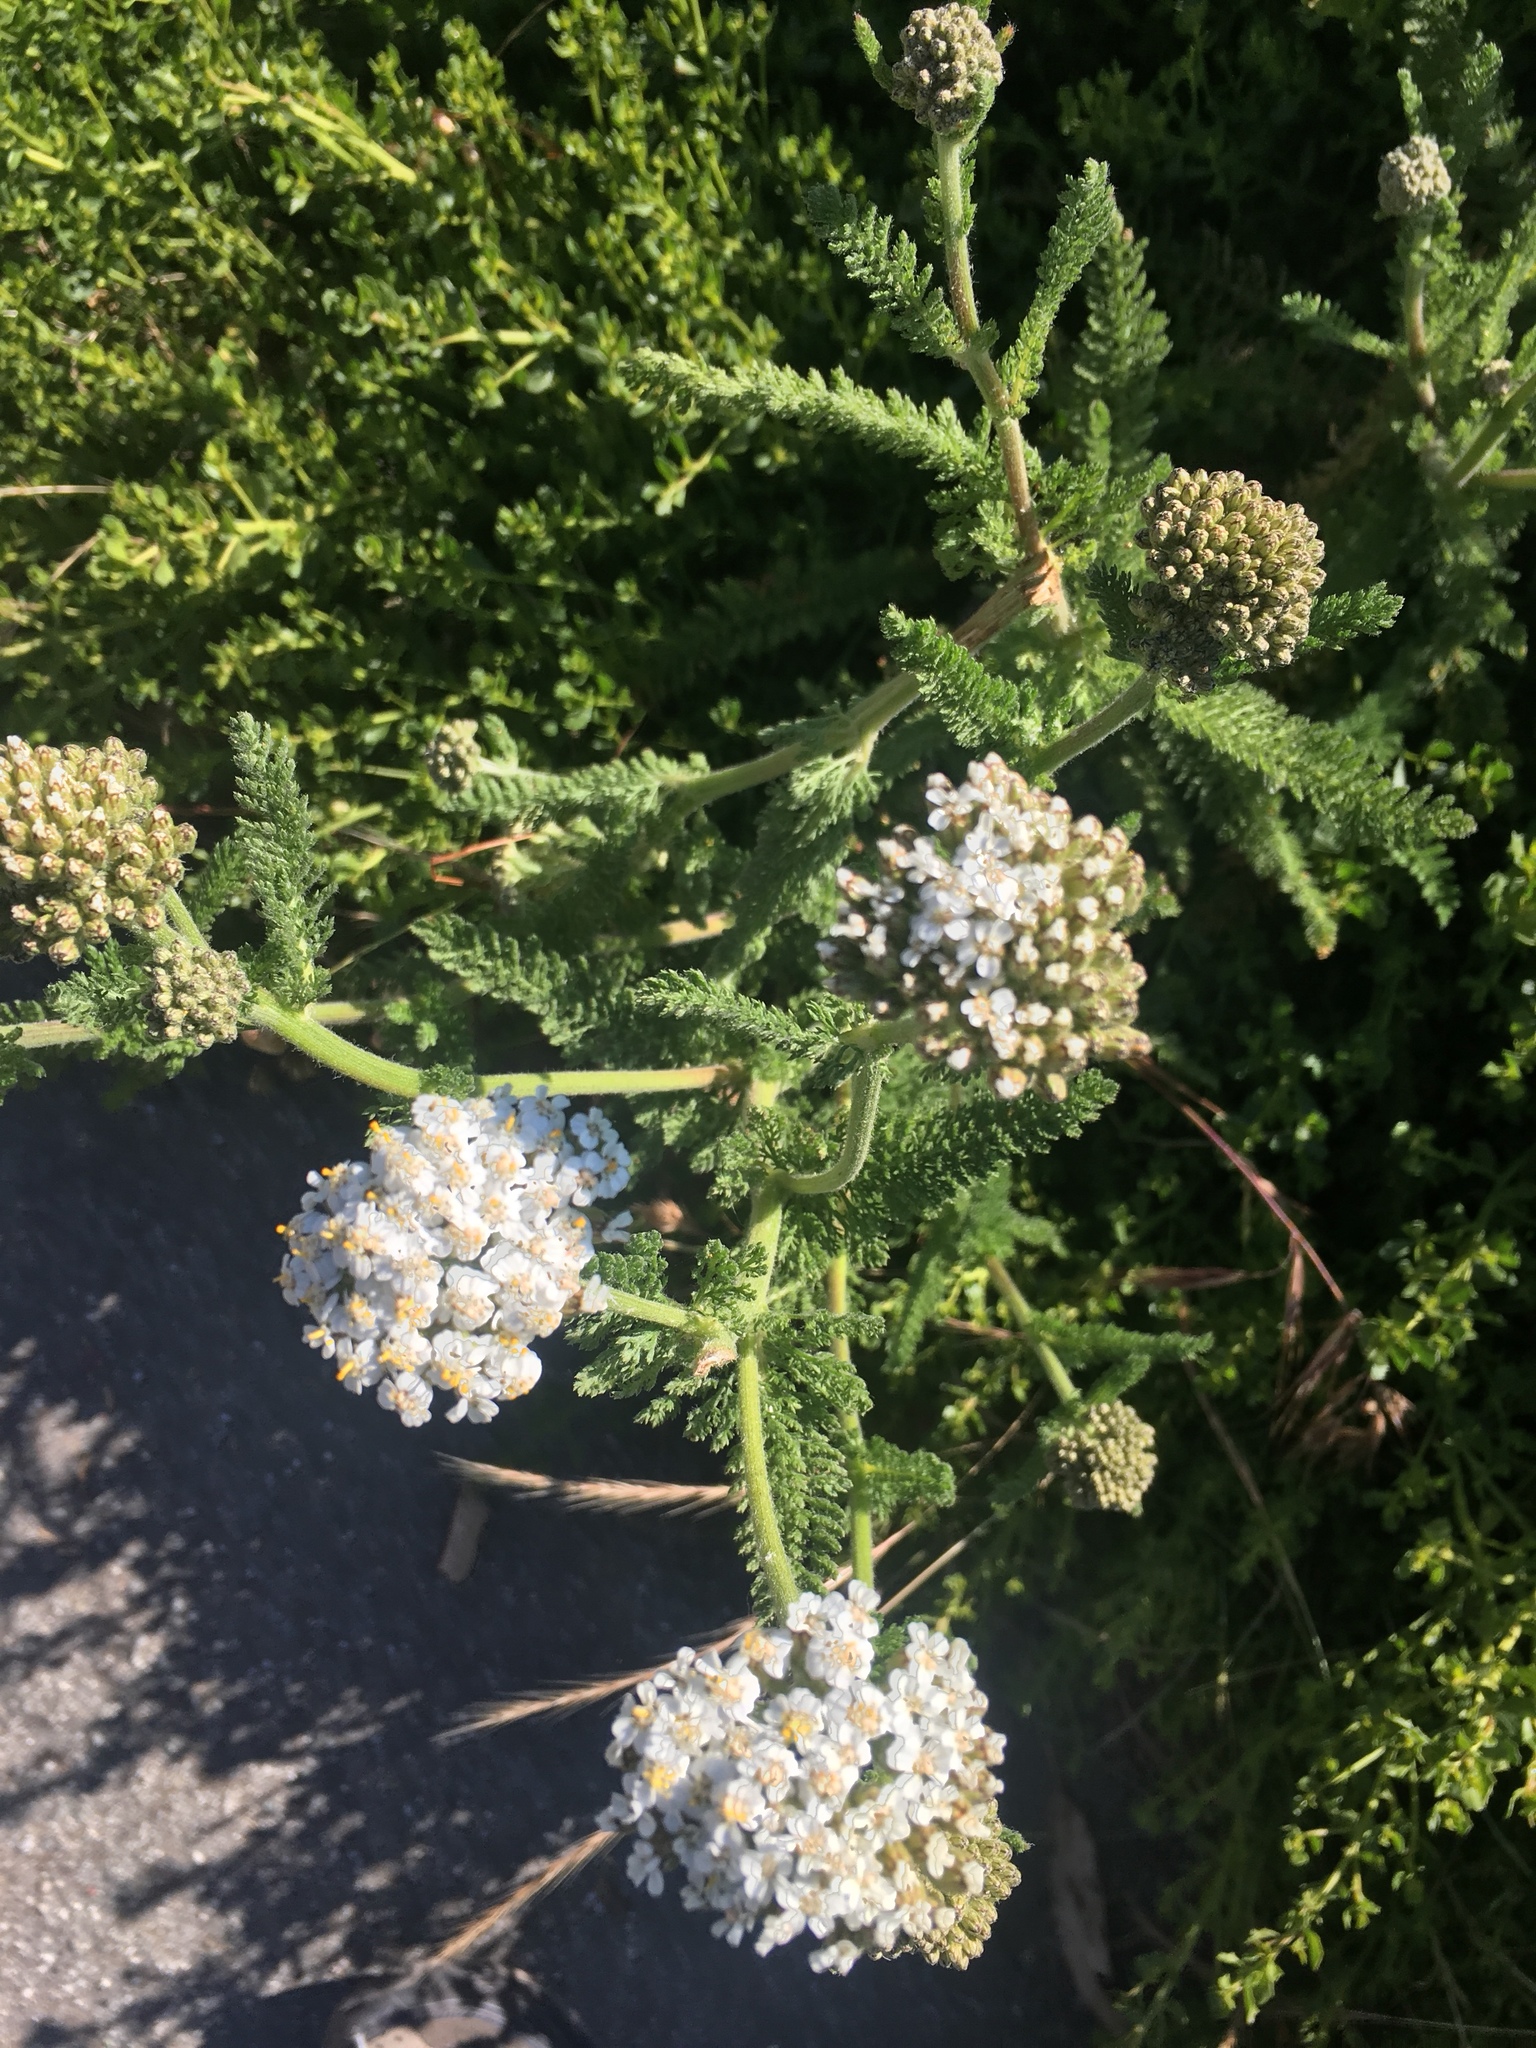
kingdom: Plantae
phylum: Tracheophyta
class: Magnoliopsida
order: Asterales
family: Asteraceae
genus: Achillea
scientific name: Achillea millefolium
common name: Yarrow
